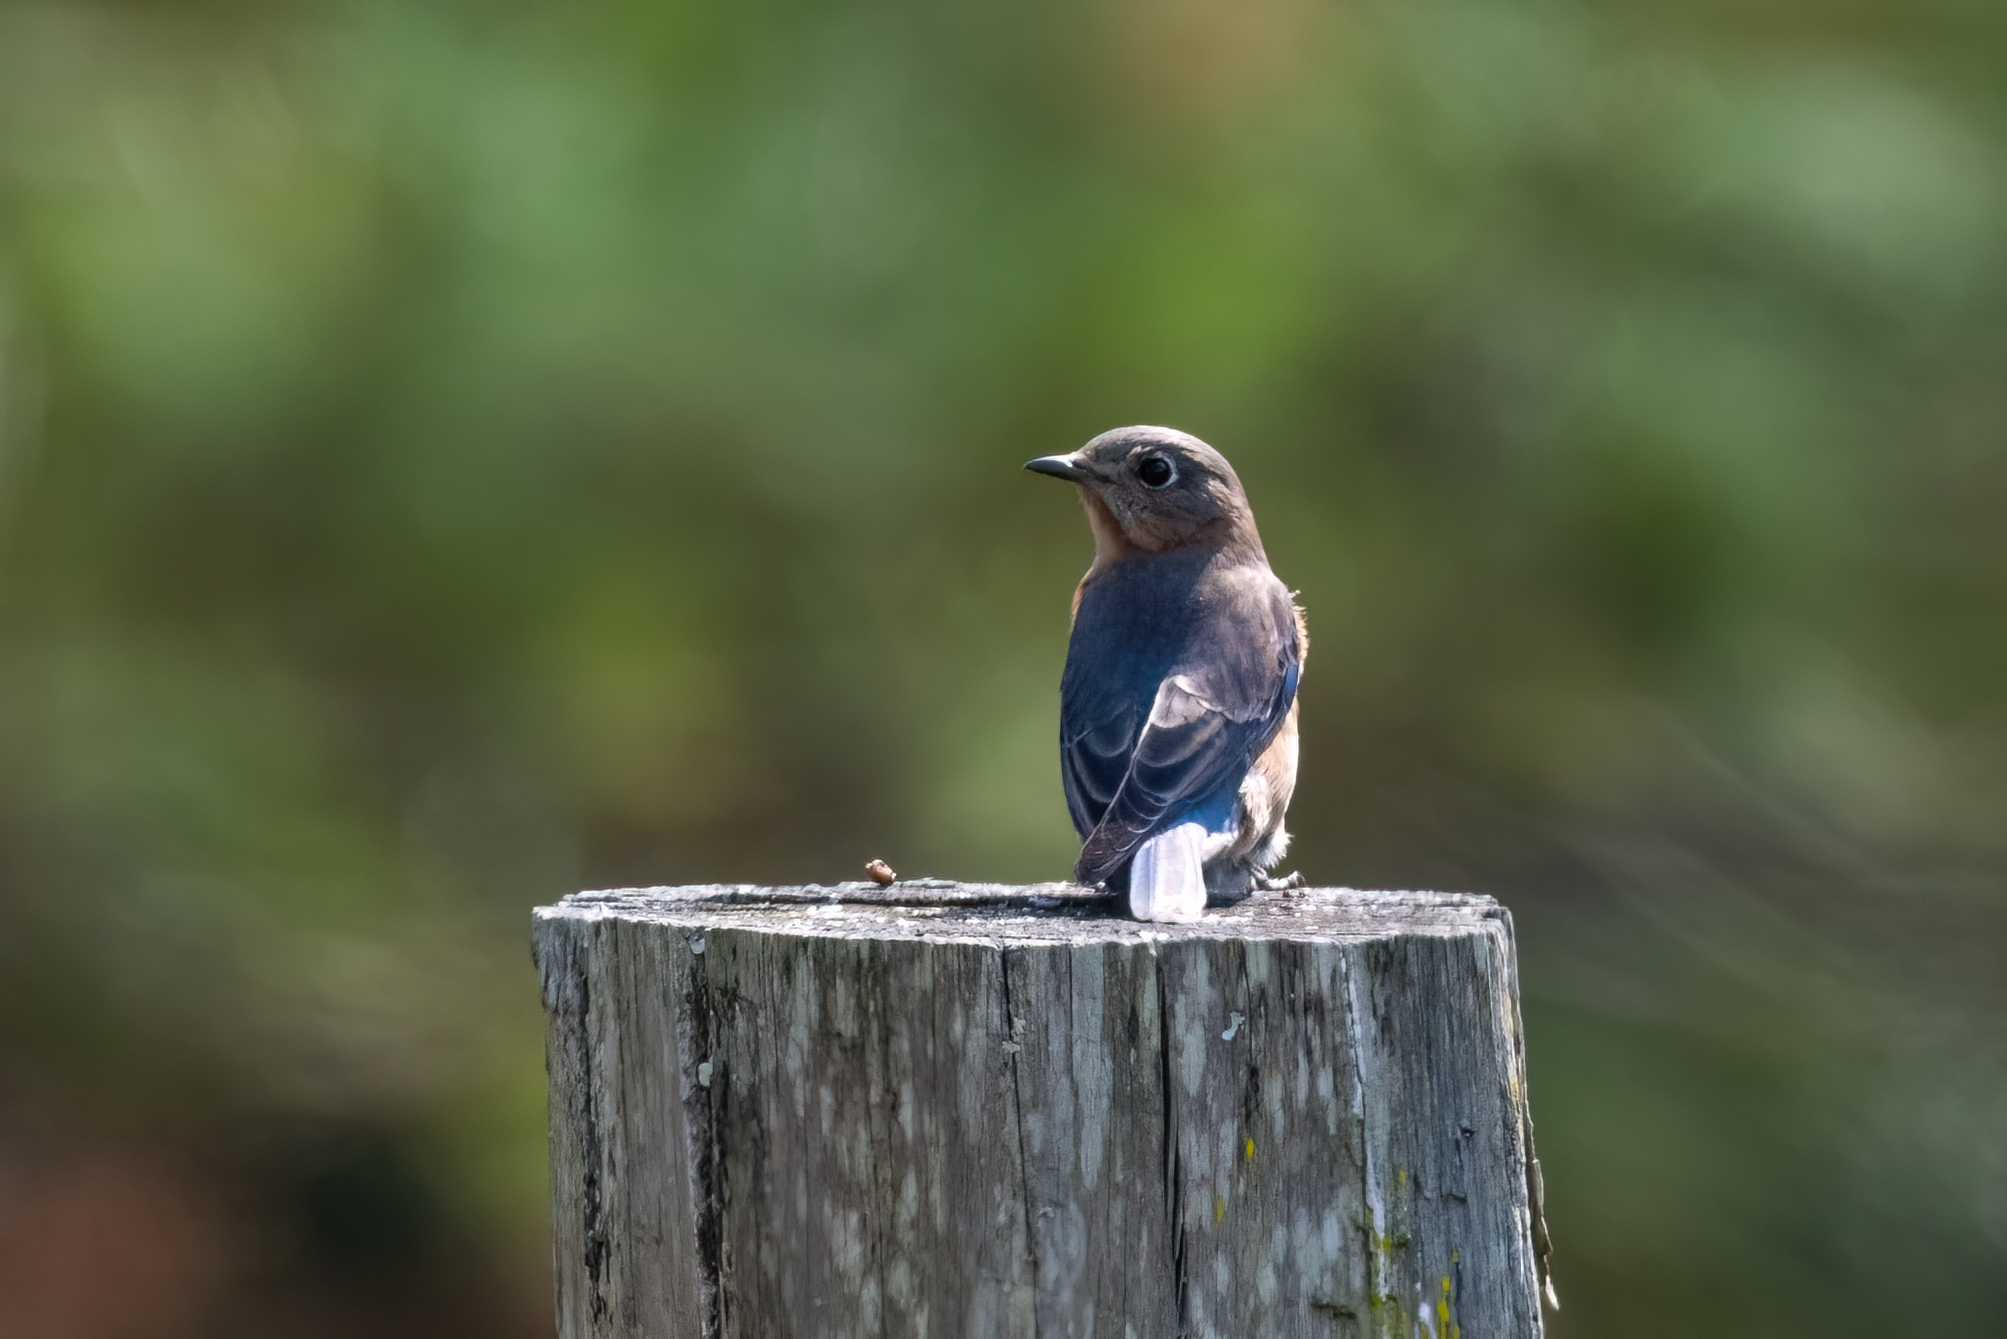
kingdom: Animalia
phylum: Chordata
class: Aves
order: Passeriformes
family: Turdidae
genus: Sialia
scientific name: Sialia sialis
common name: Eastern bluebird
